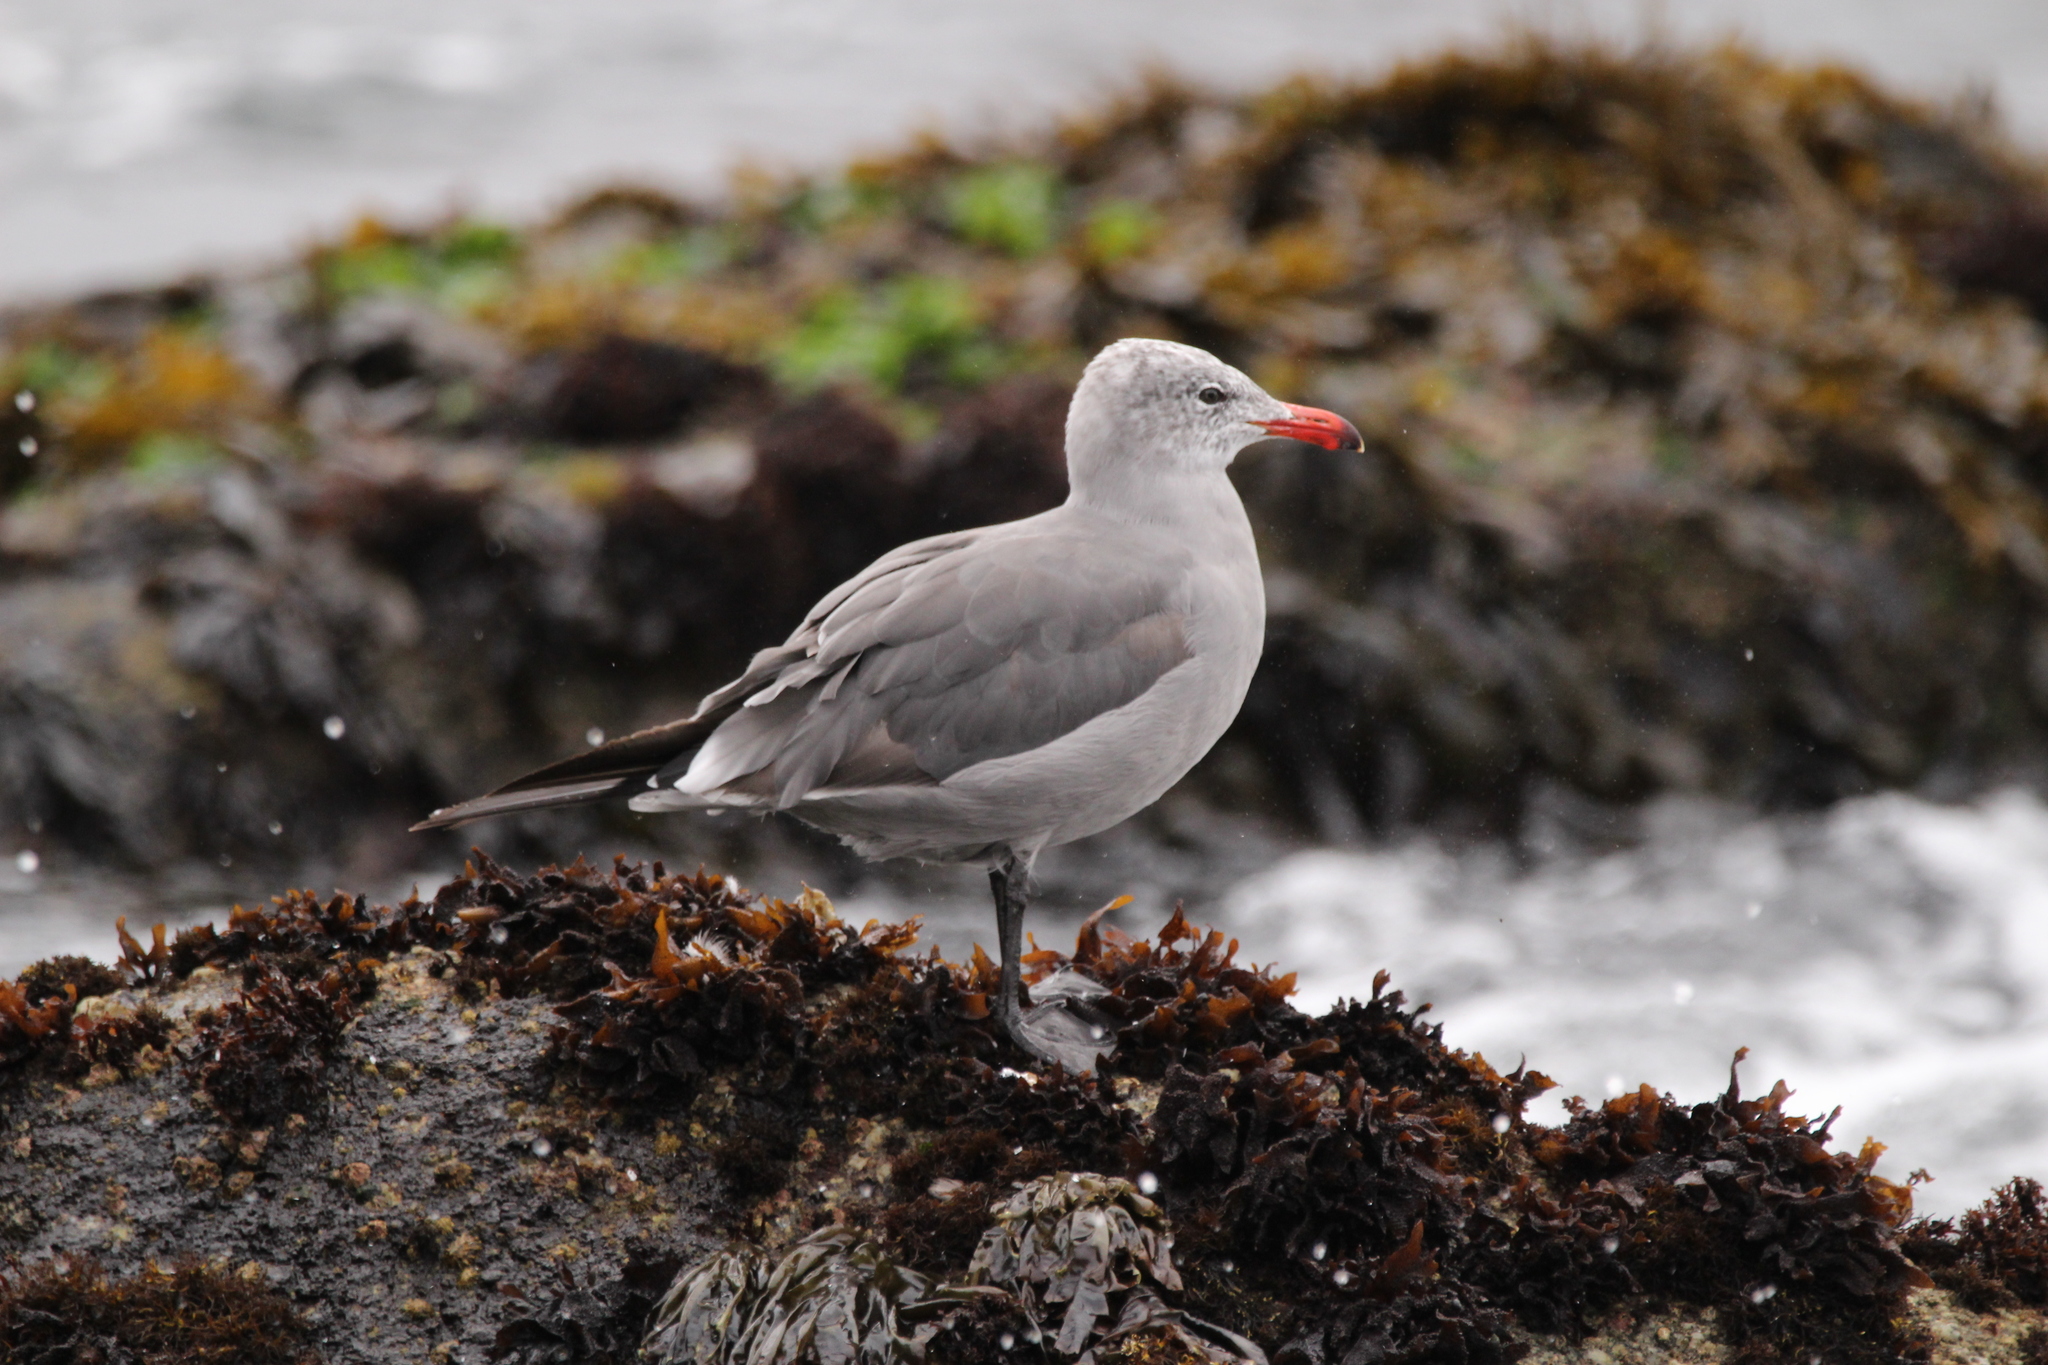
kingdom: Animalia
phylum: Chordata
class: Aves
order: Charadriiformes
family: Laridae
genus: Larus
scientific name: Larus heermanni
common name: Heermann's gull
